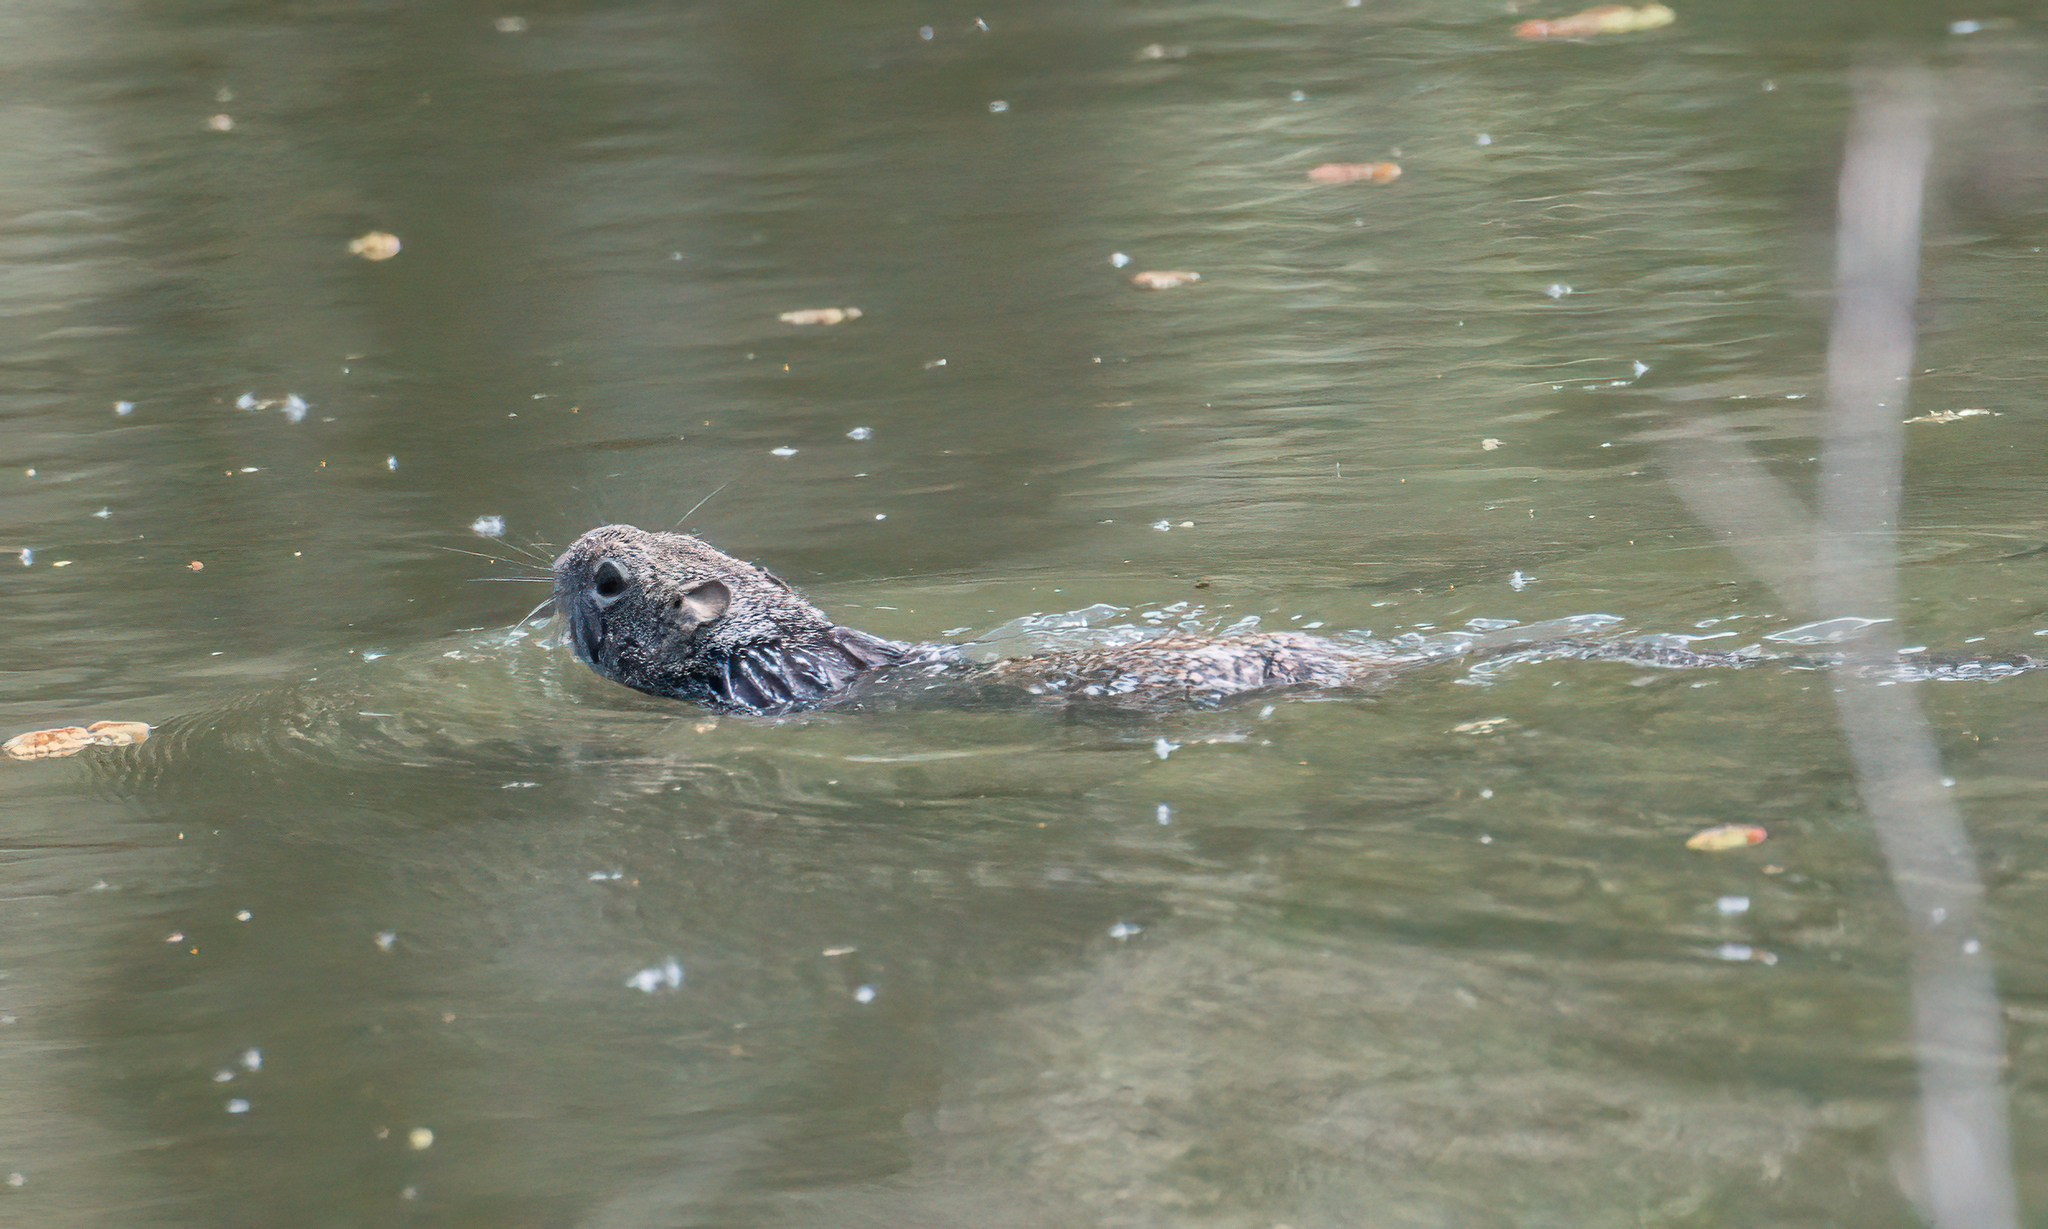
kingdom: Animalia
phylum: Chordata
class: Mammalia
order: Rodentia
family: Sciuridae
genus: Otospermophilus
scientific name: Otospermophilus beecheyi
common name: California ground squirrel
